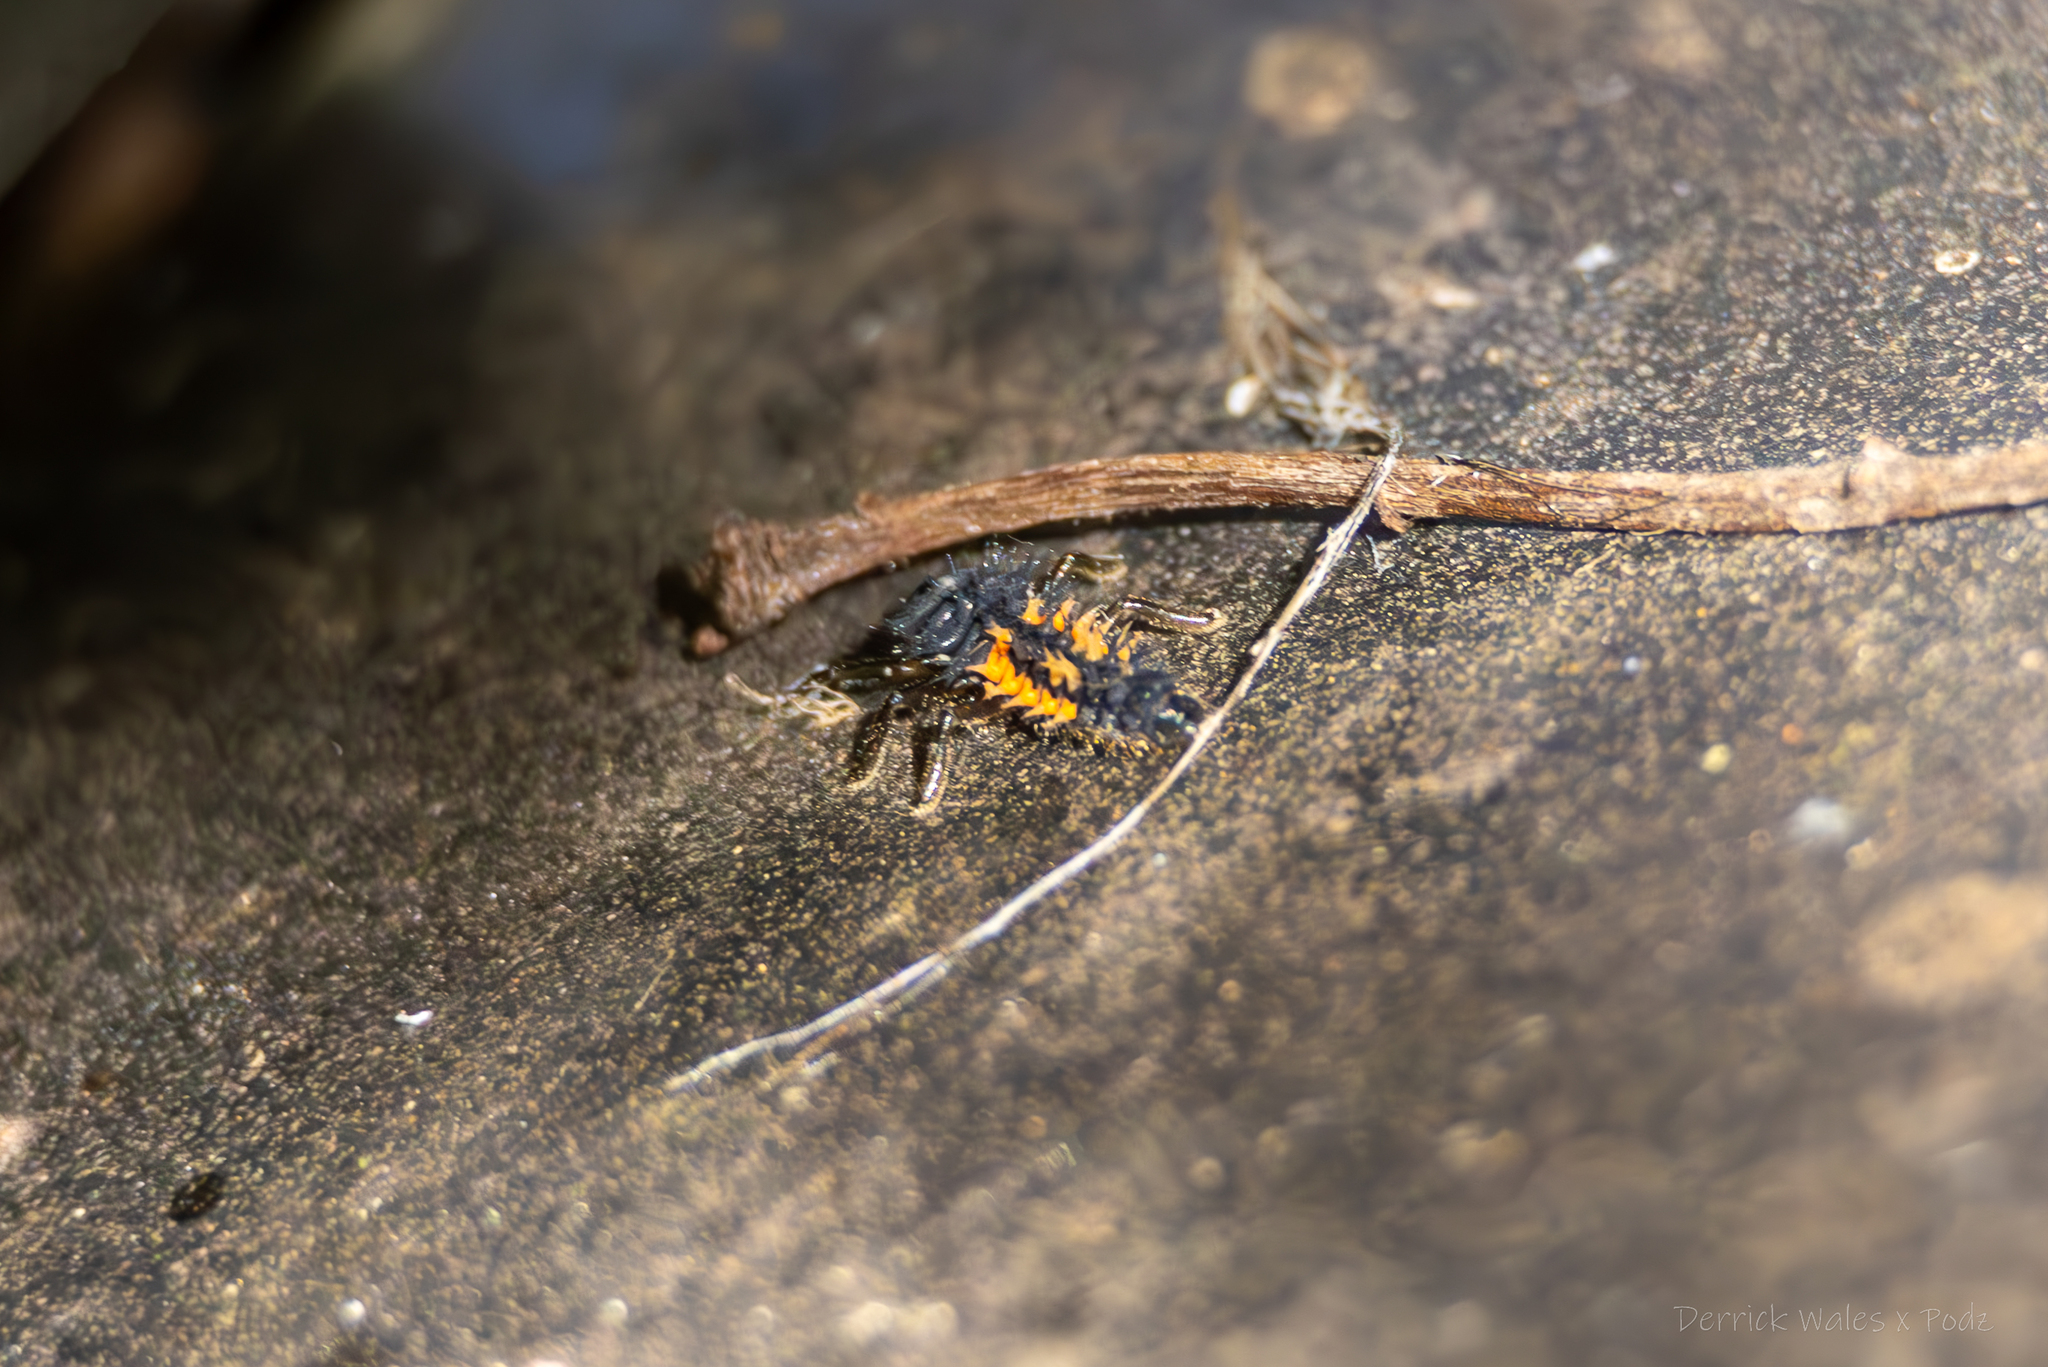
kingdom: Animalia
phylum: Arthropoda
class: Insecta
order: Coleoptera
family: Coccinellidae
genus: Harmonia
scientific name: Harmonia axyridis
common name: Harlequin ladybird
